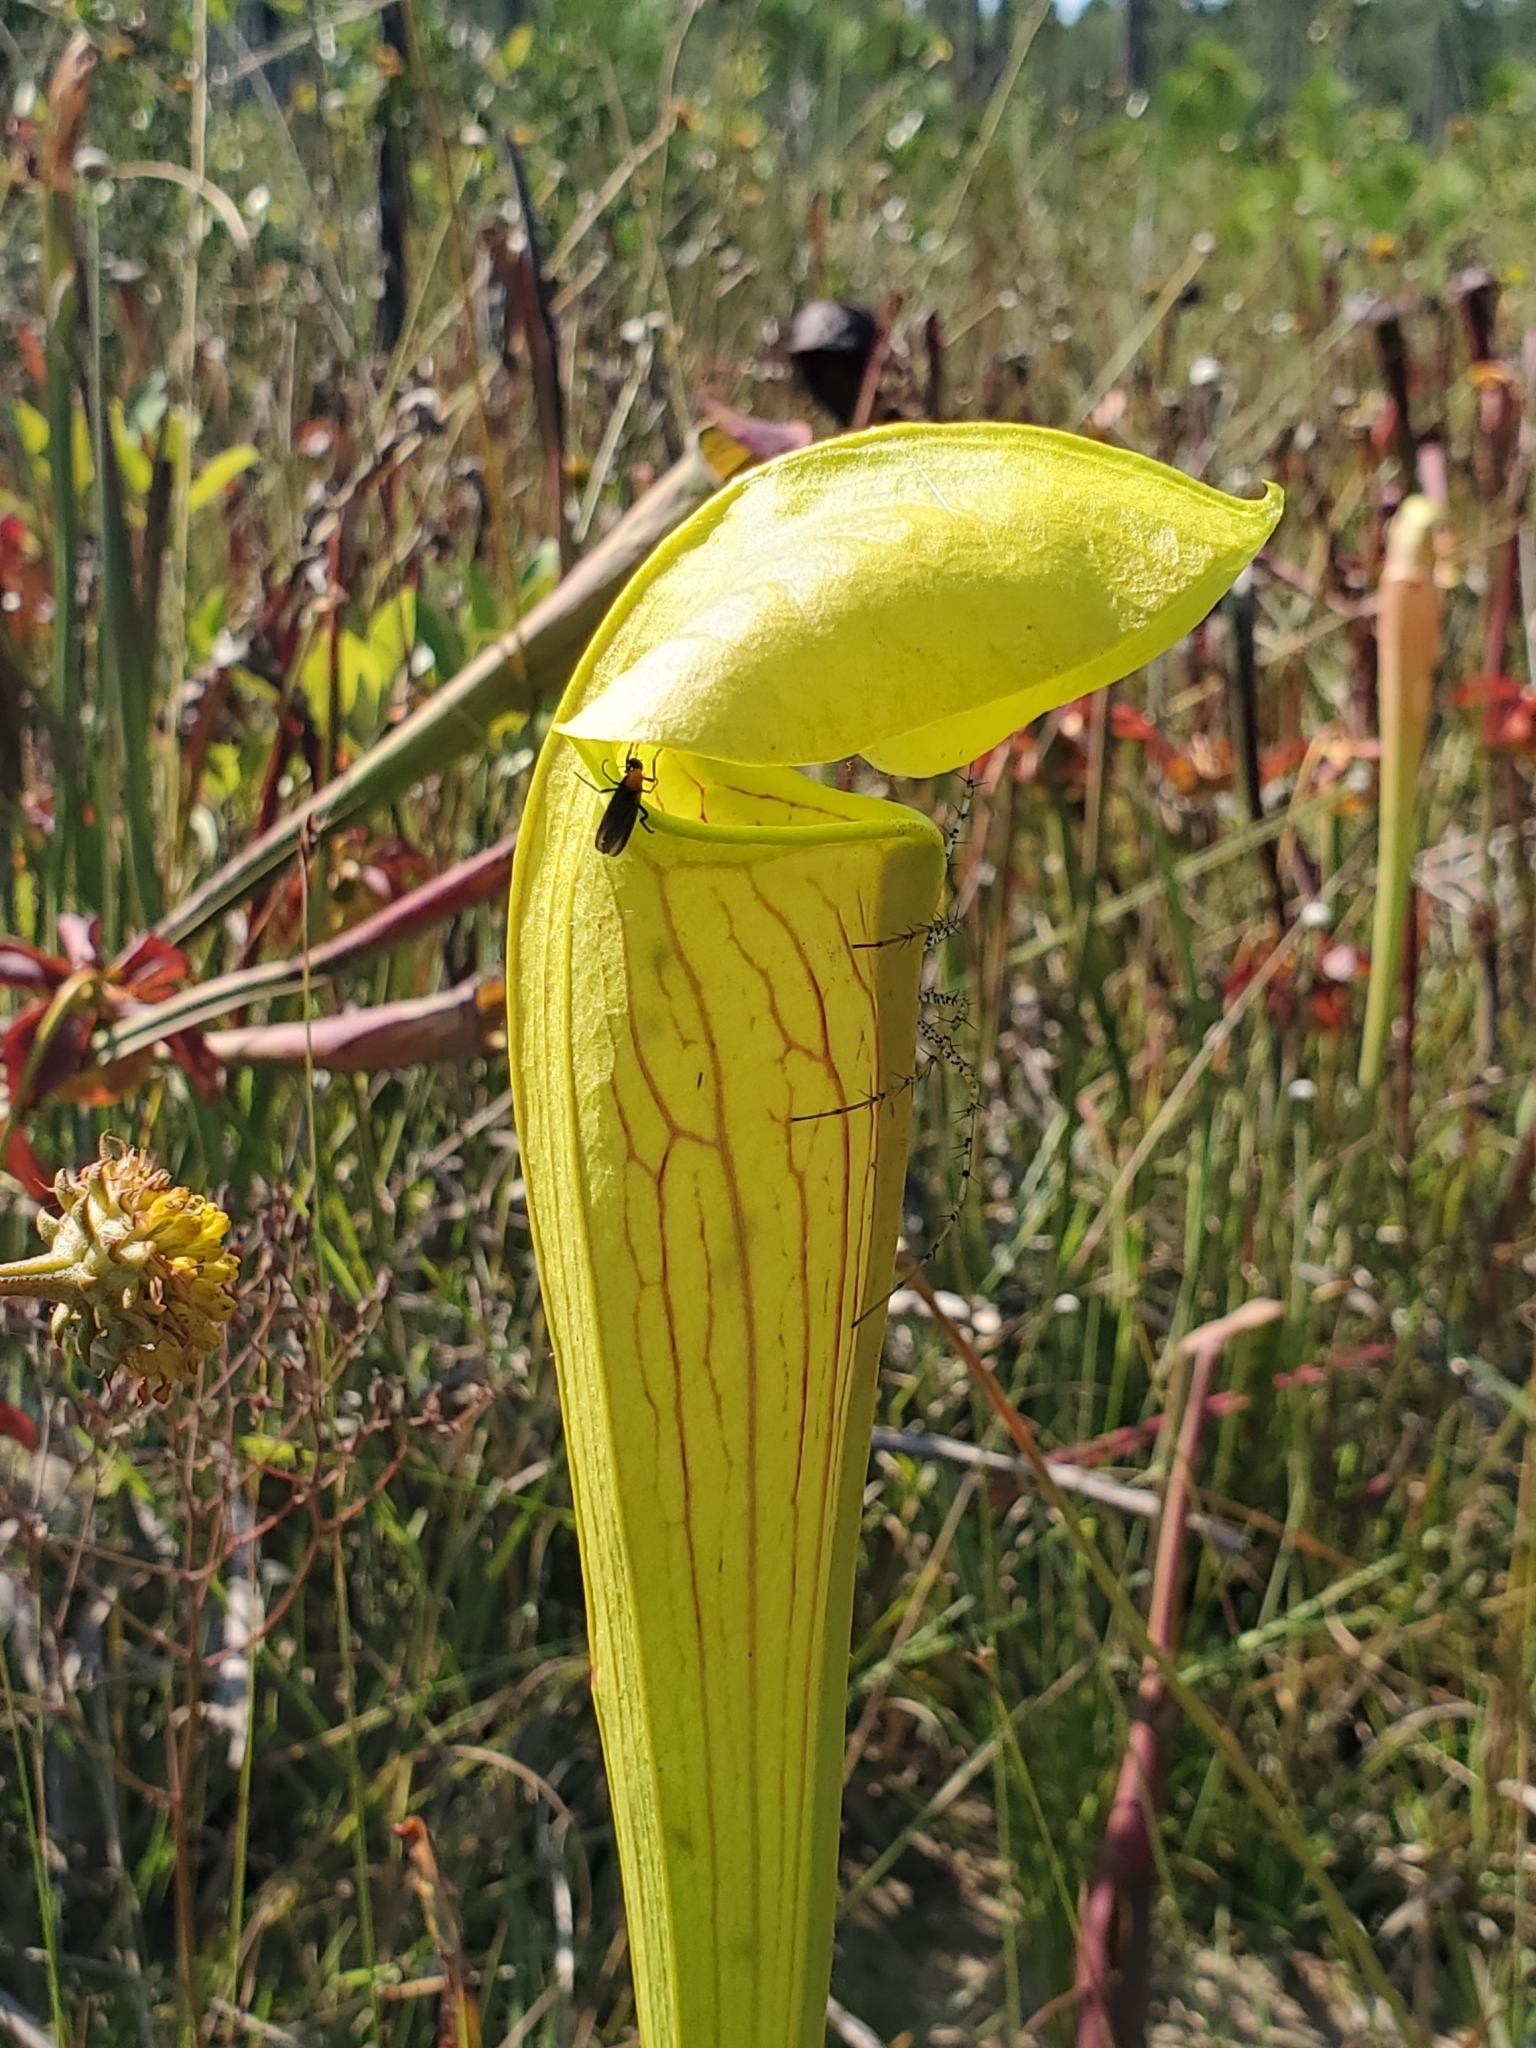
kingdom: Plantae
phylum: Tracheophyta
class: Magnoliopsida
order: Ericales
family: Sarraceniaceae
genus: Sarracenia
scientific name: Sarracenia alata
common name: Yellow trumpets
